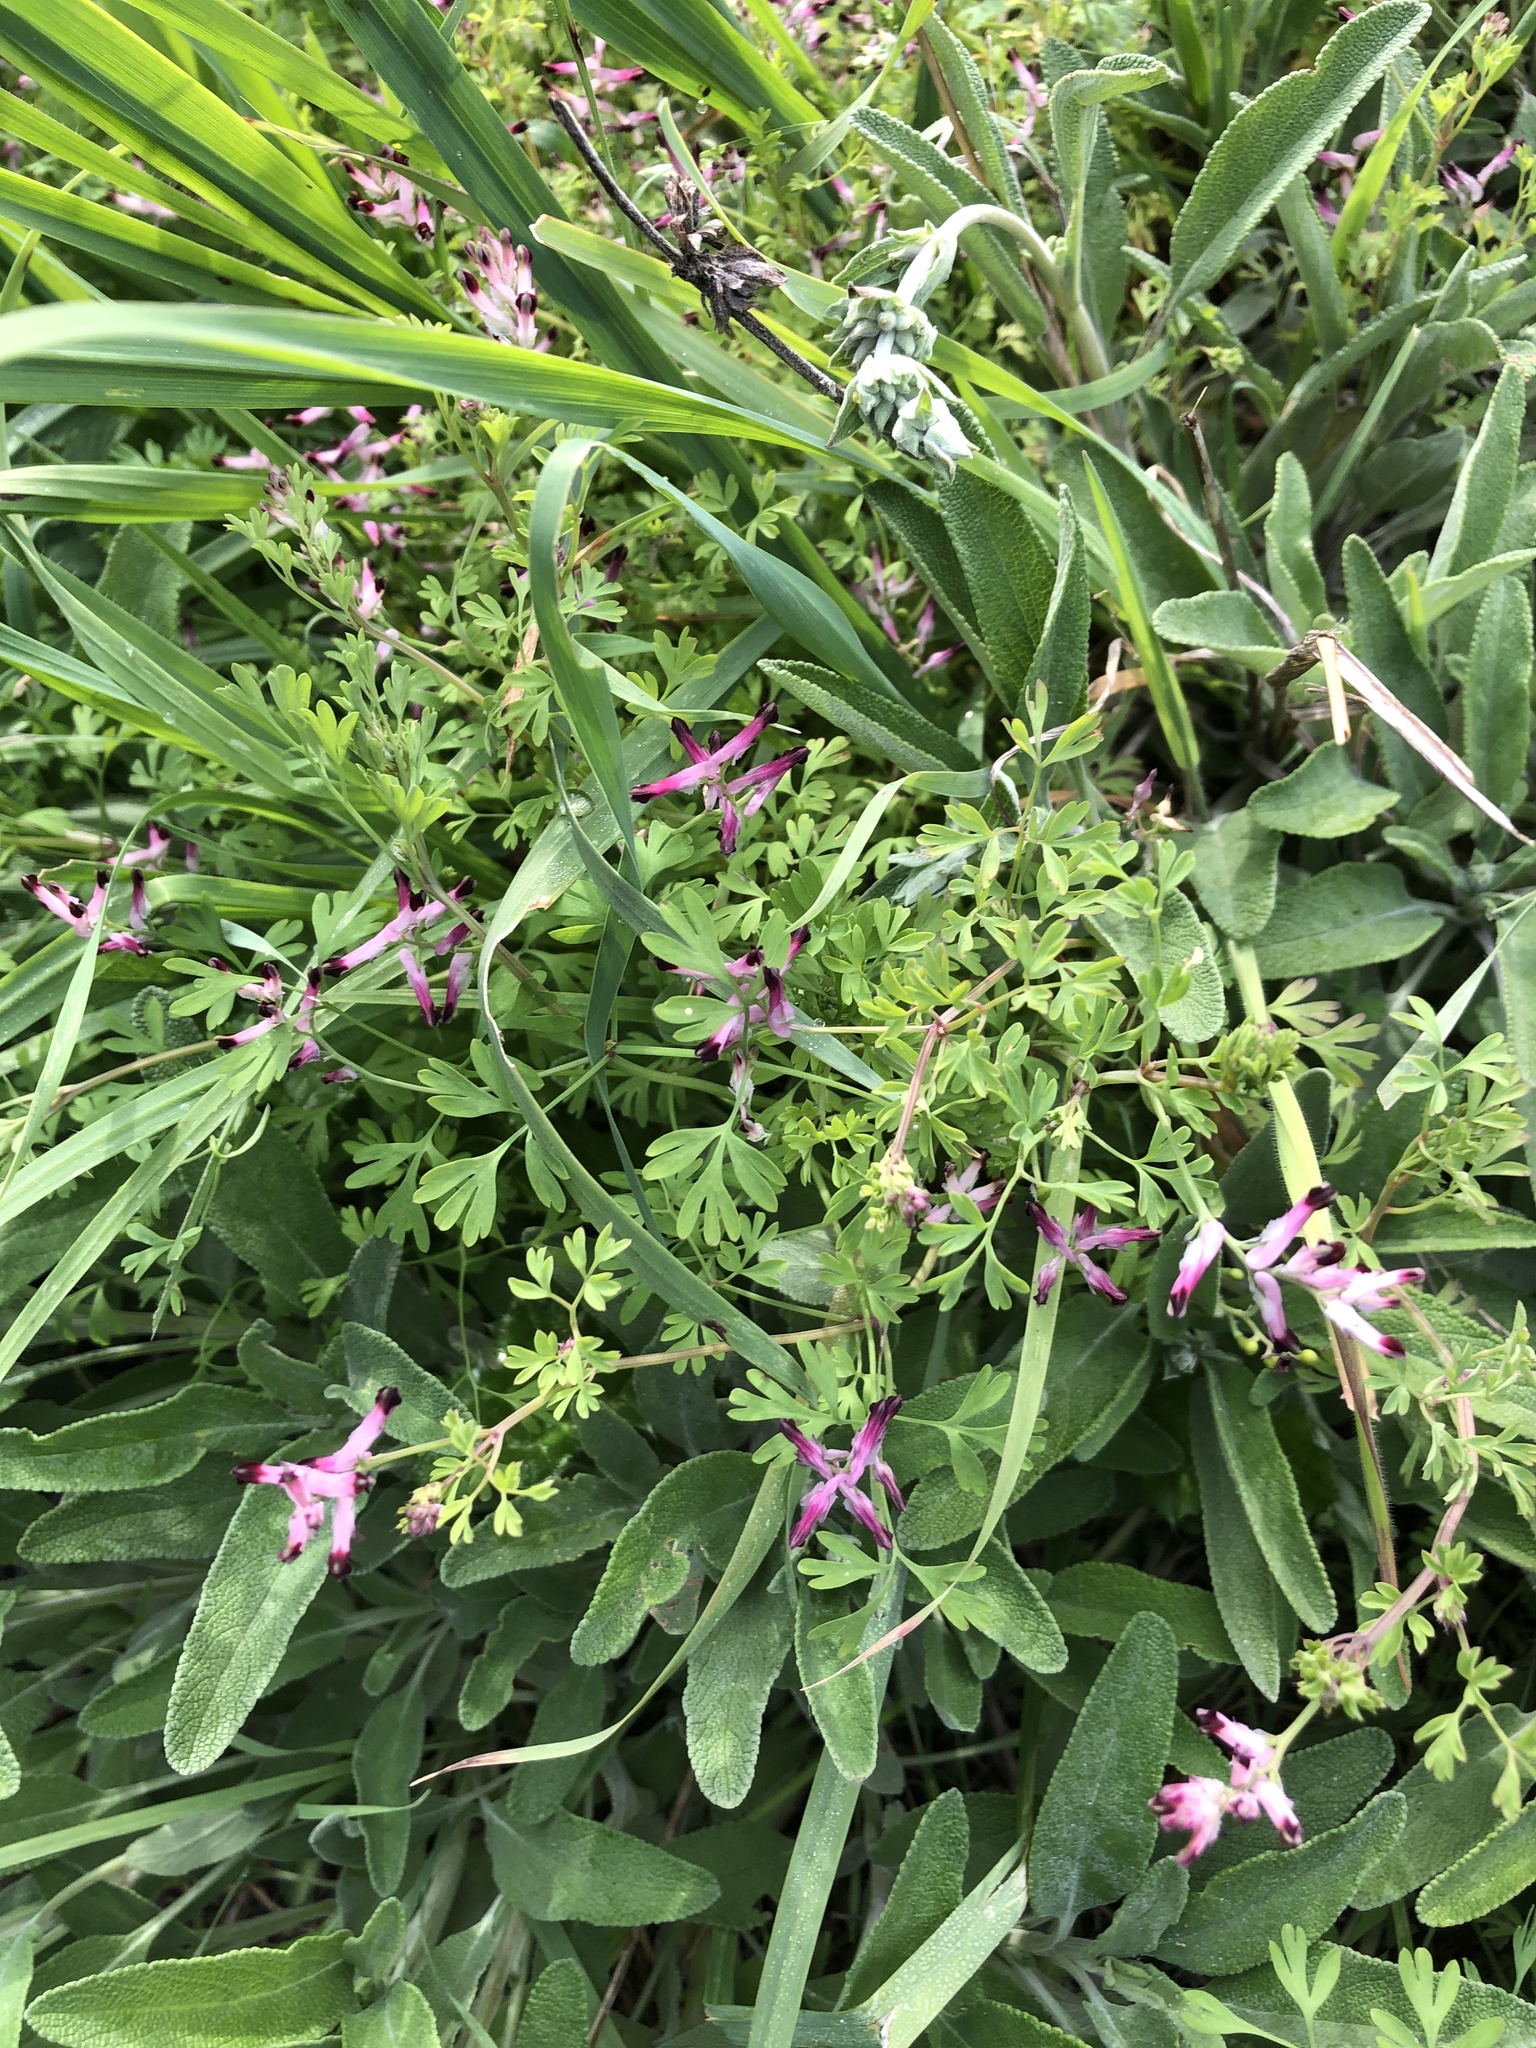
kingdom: Plantae
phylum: Tracheophyta
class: Magnoliopsida
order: Ranunculales
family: Papaveraceae
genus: Fumaria
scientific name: Fumaria muralis
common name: Common ramping-fumitory
